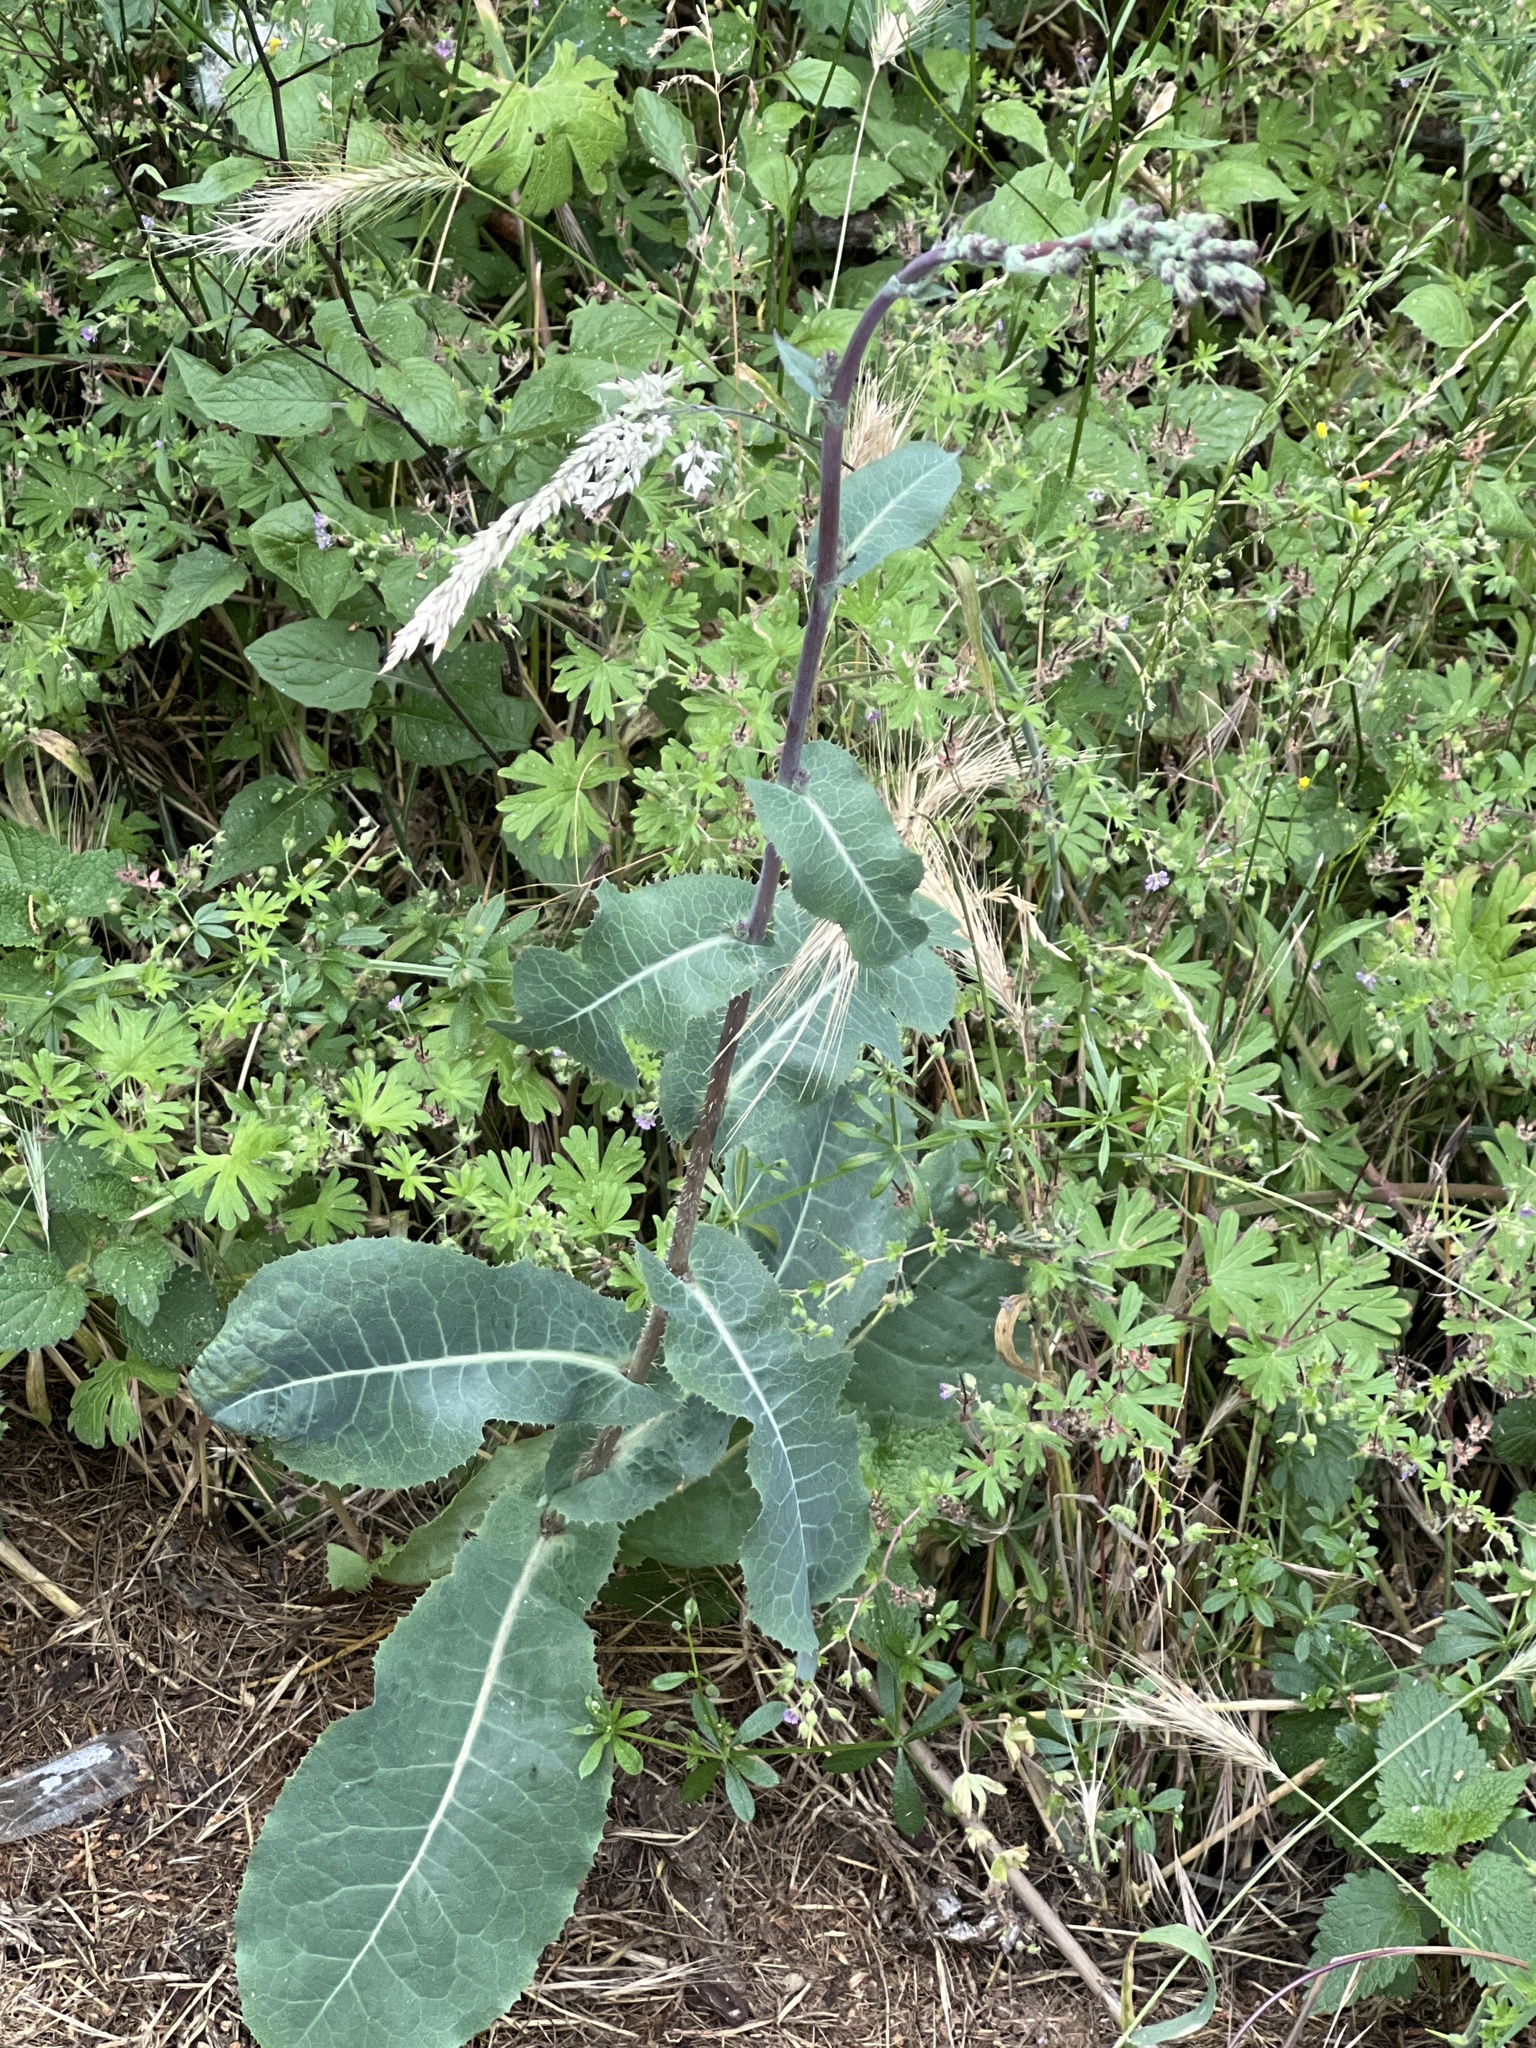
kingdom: Plantae
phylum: Tracheophyta
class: Magnoliopsida
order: Asterales
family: Asteraceae
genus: Lactuca
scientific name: Lactuca virosa
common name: Great lettuce
